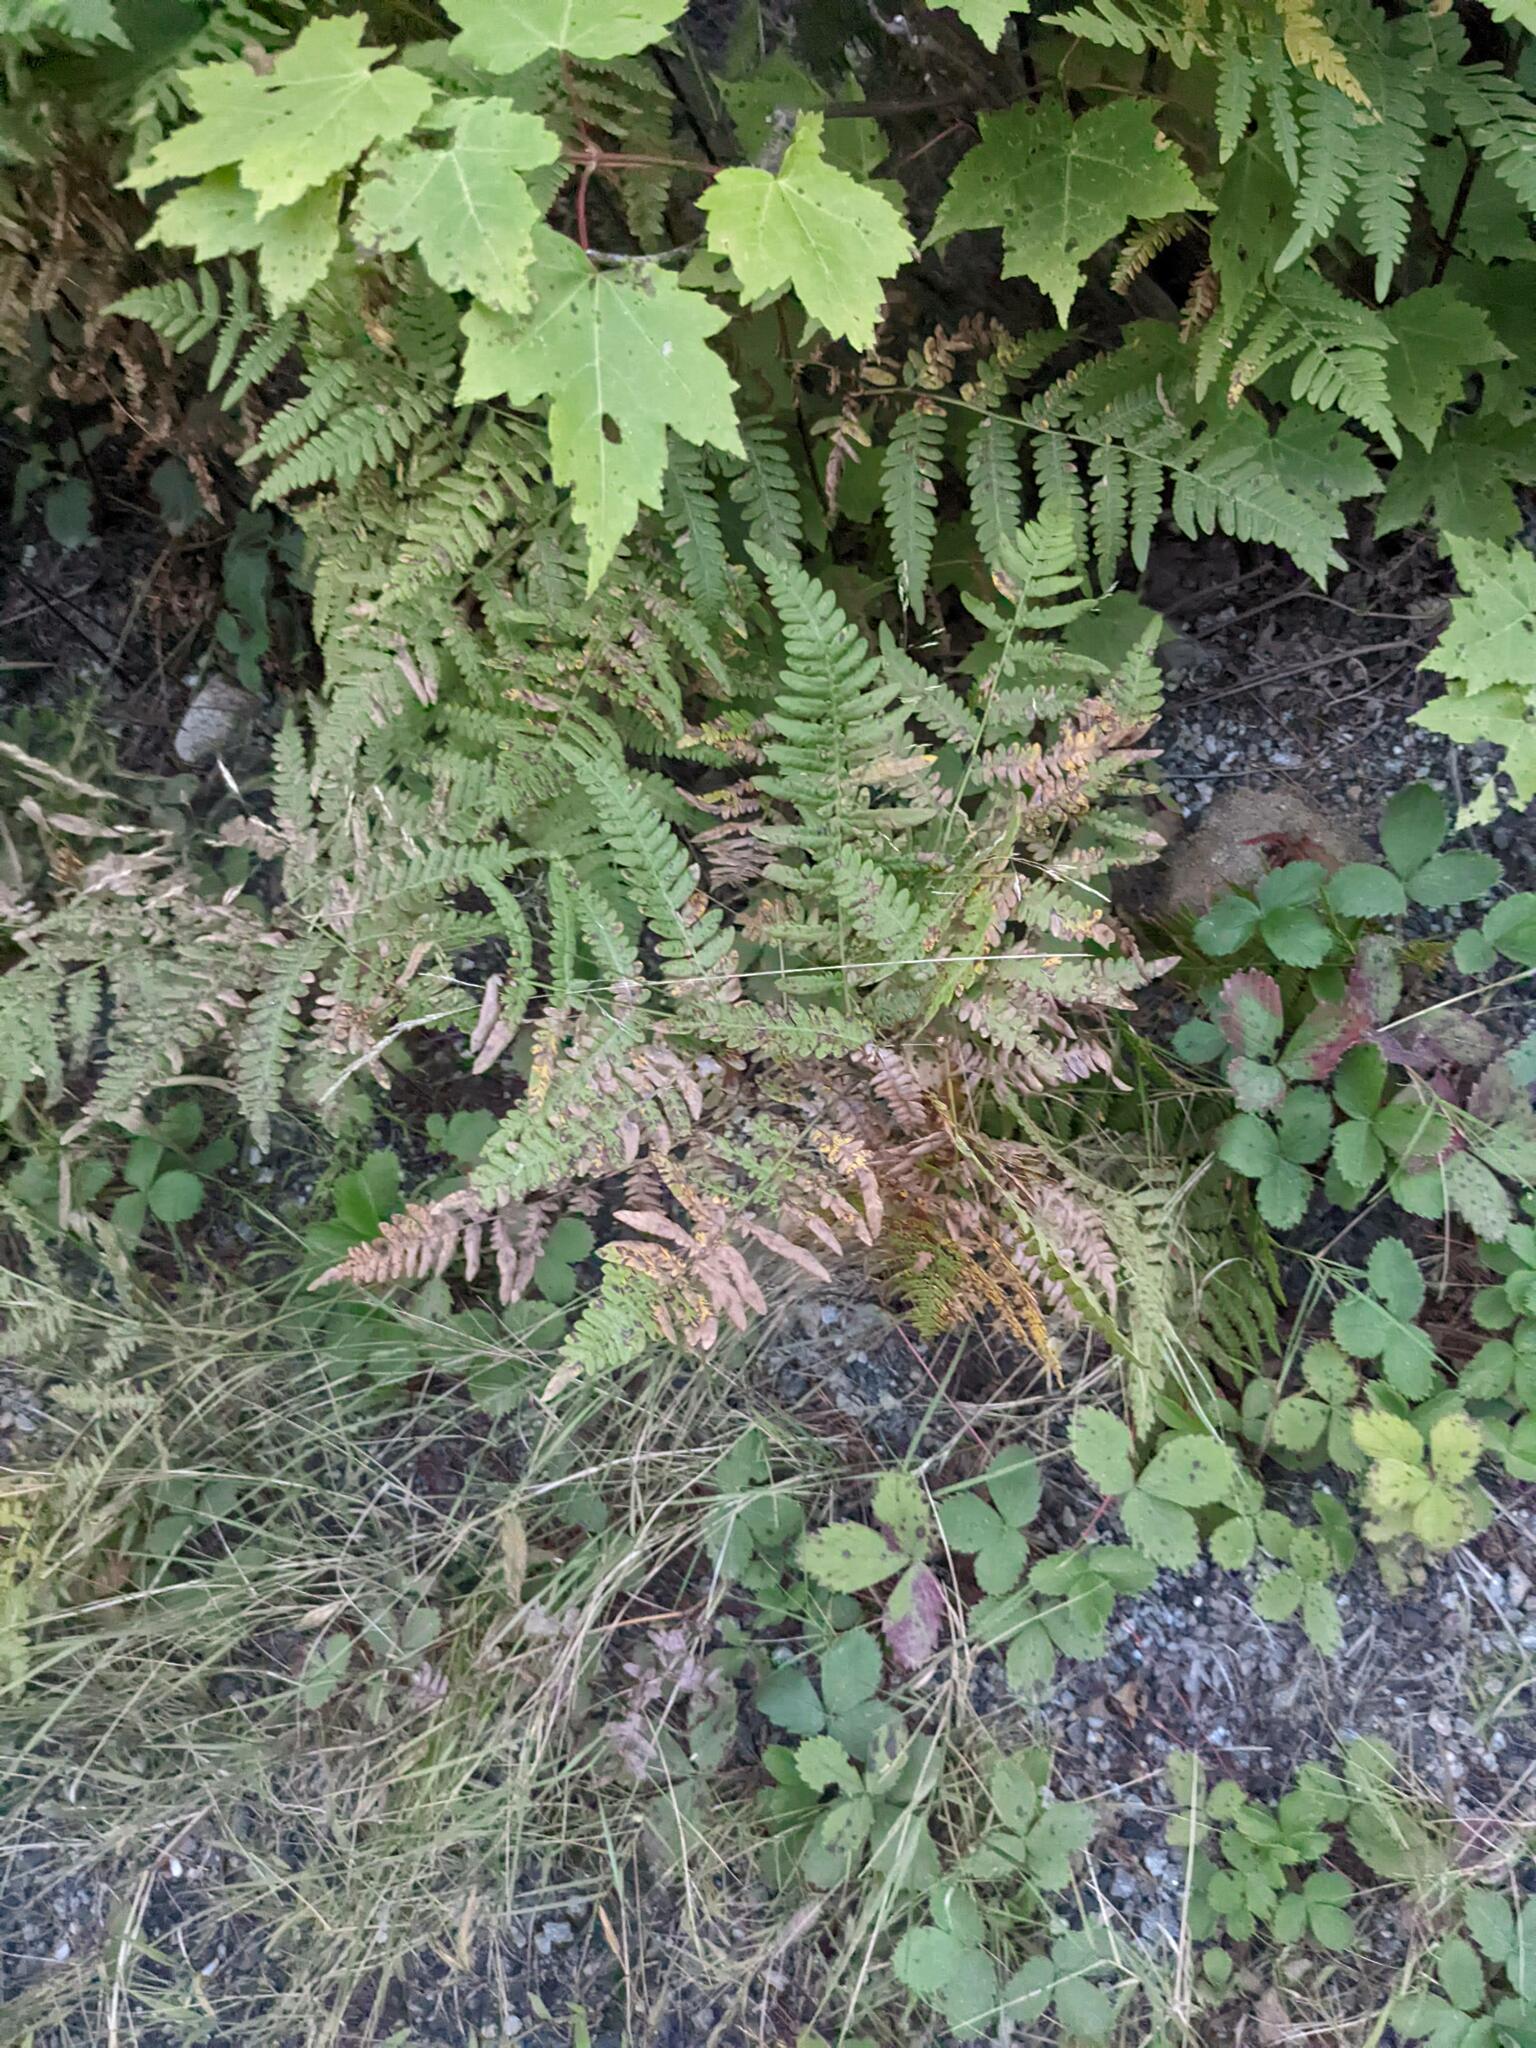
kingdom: Plantae
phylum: Tracheophyta
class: Polypodiopsida
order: Polypodiales
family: Dennstaedtiaceae
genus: Pteridium
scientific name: Pteridium aquilinum
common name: Bracken
